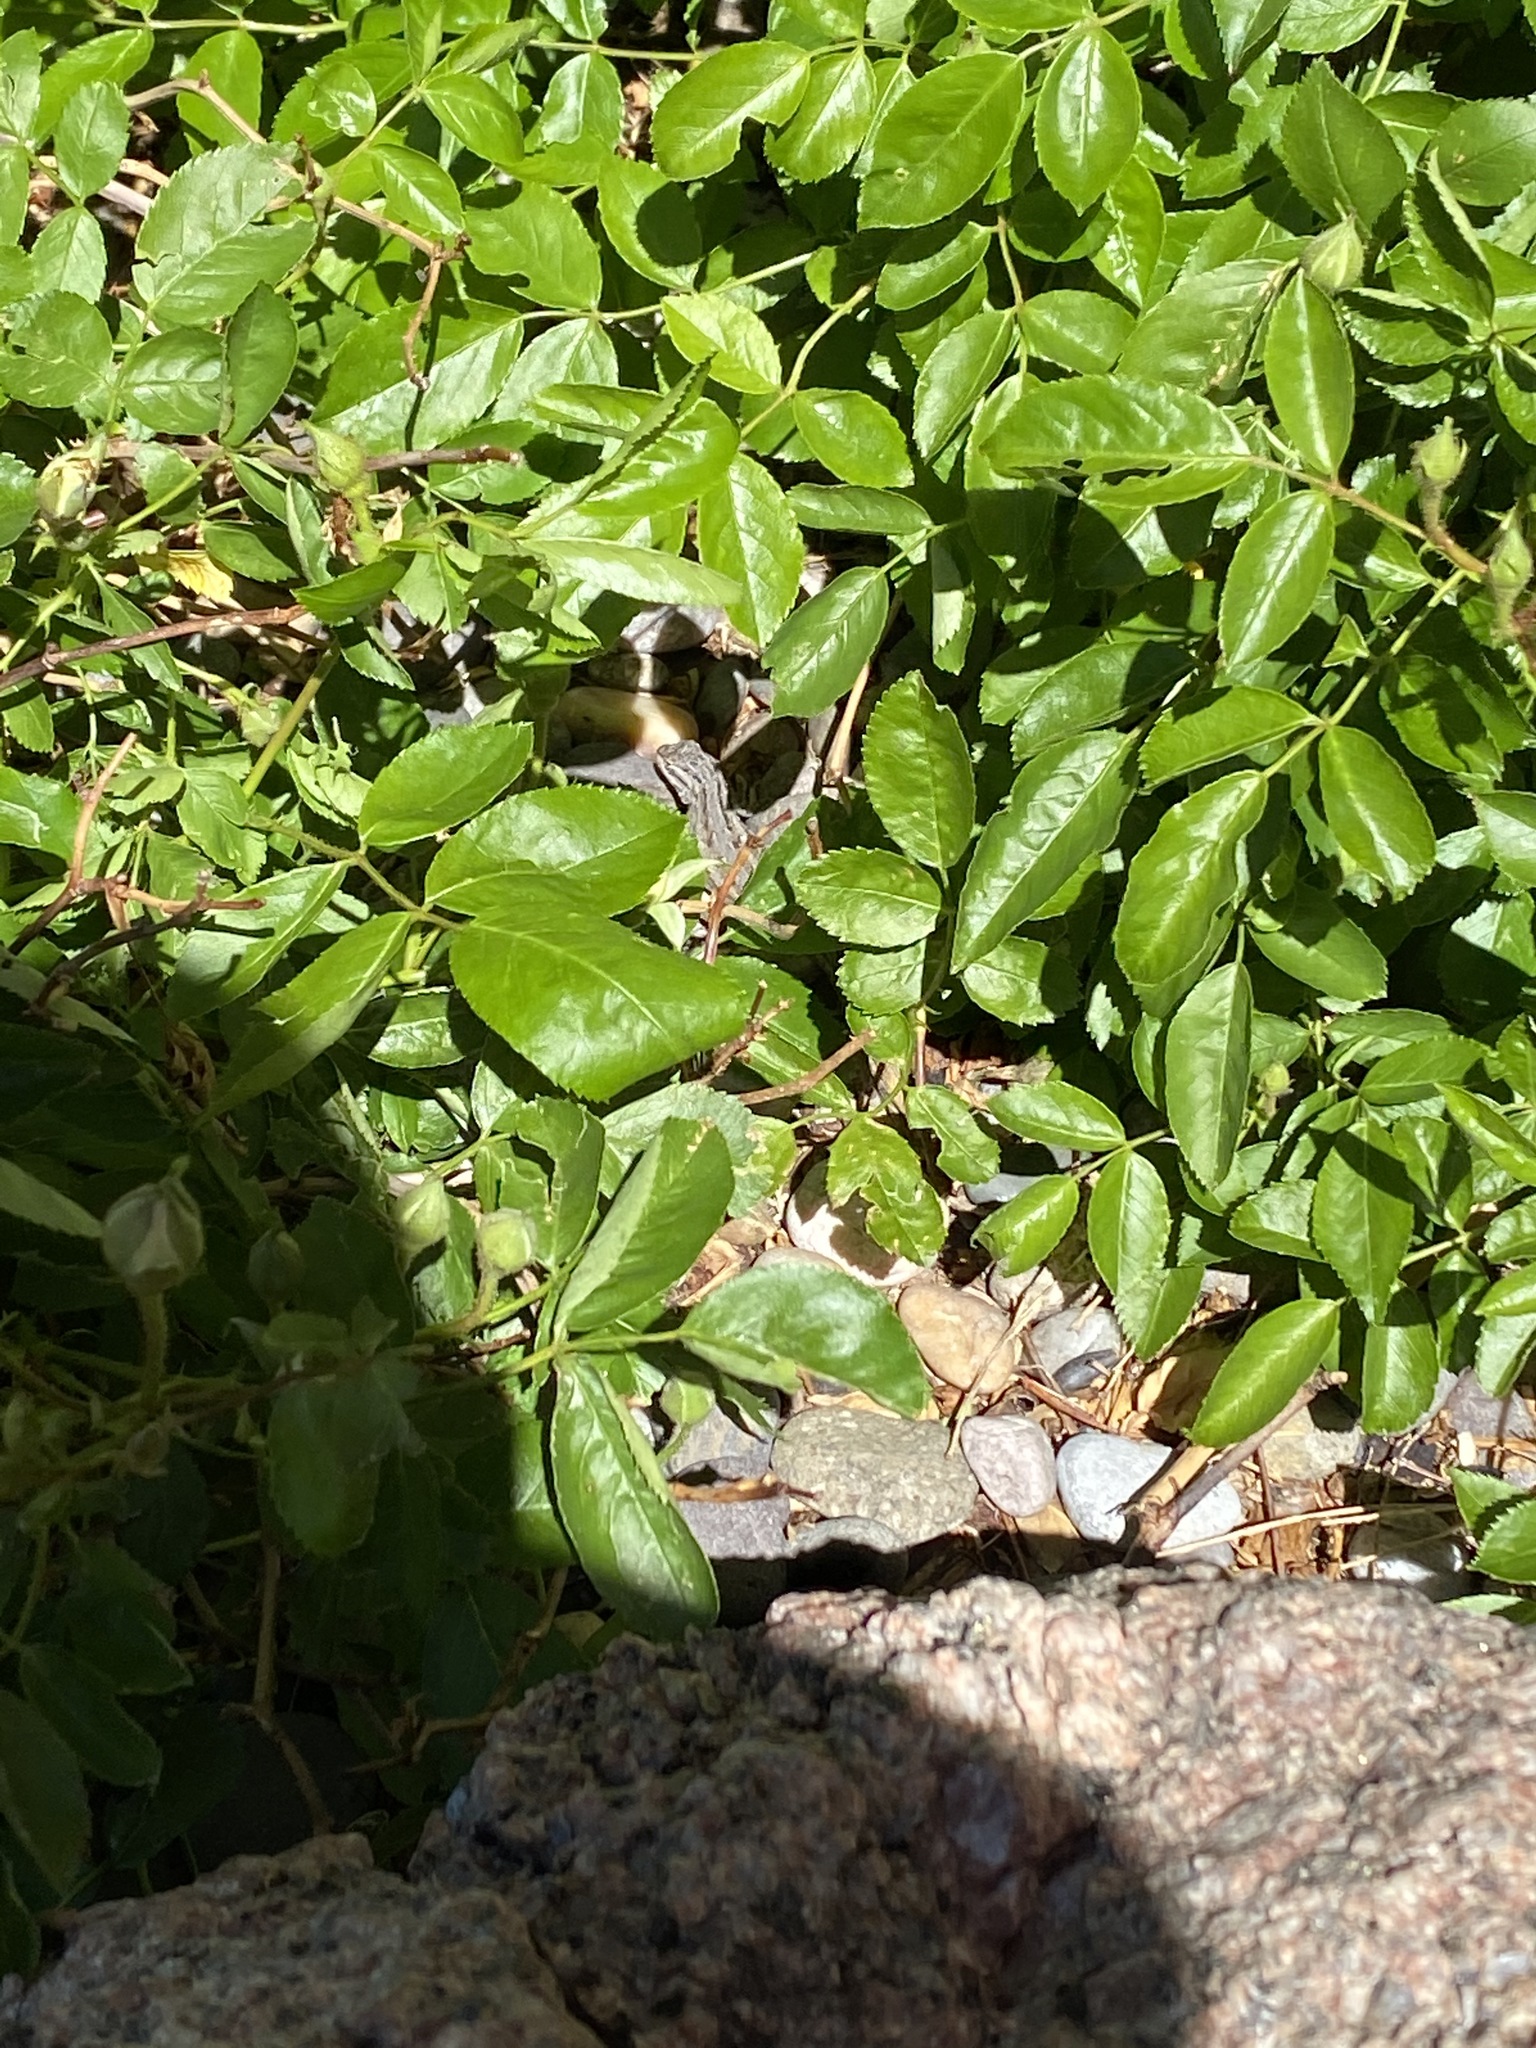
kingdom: Animalia
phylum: Chordata
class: Squamata
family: Phrynosomatidae
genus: Sceloporus
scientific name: Sceloporus cowlesi
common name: White sands prairie lizard
